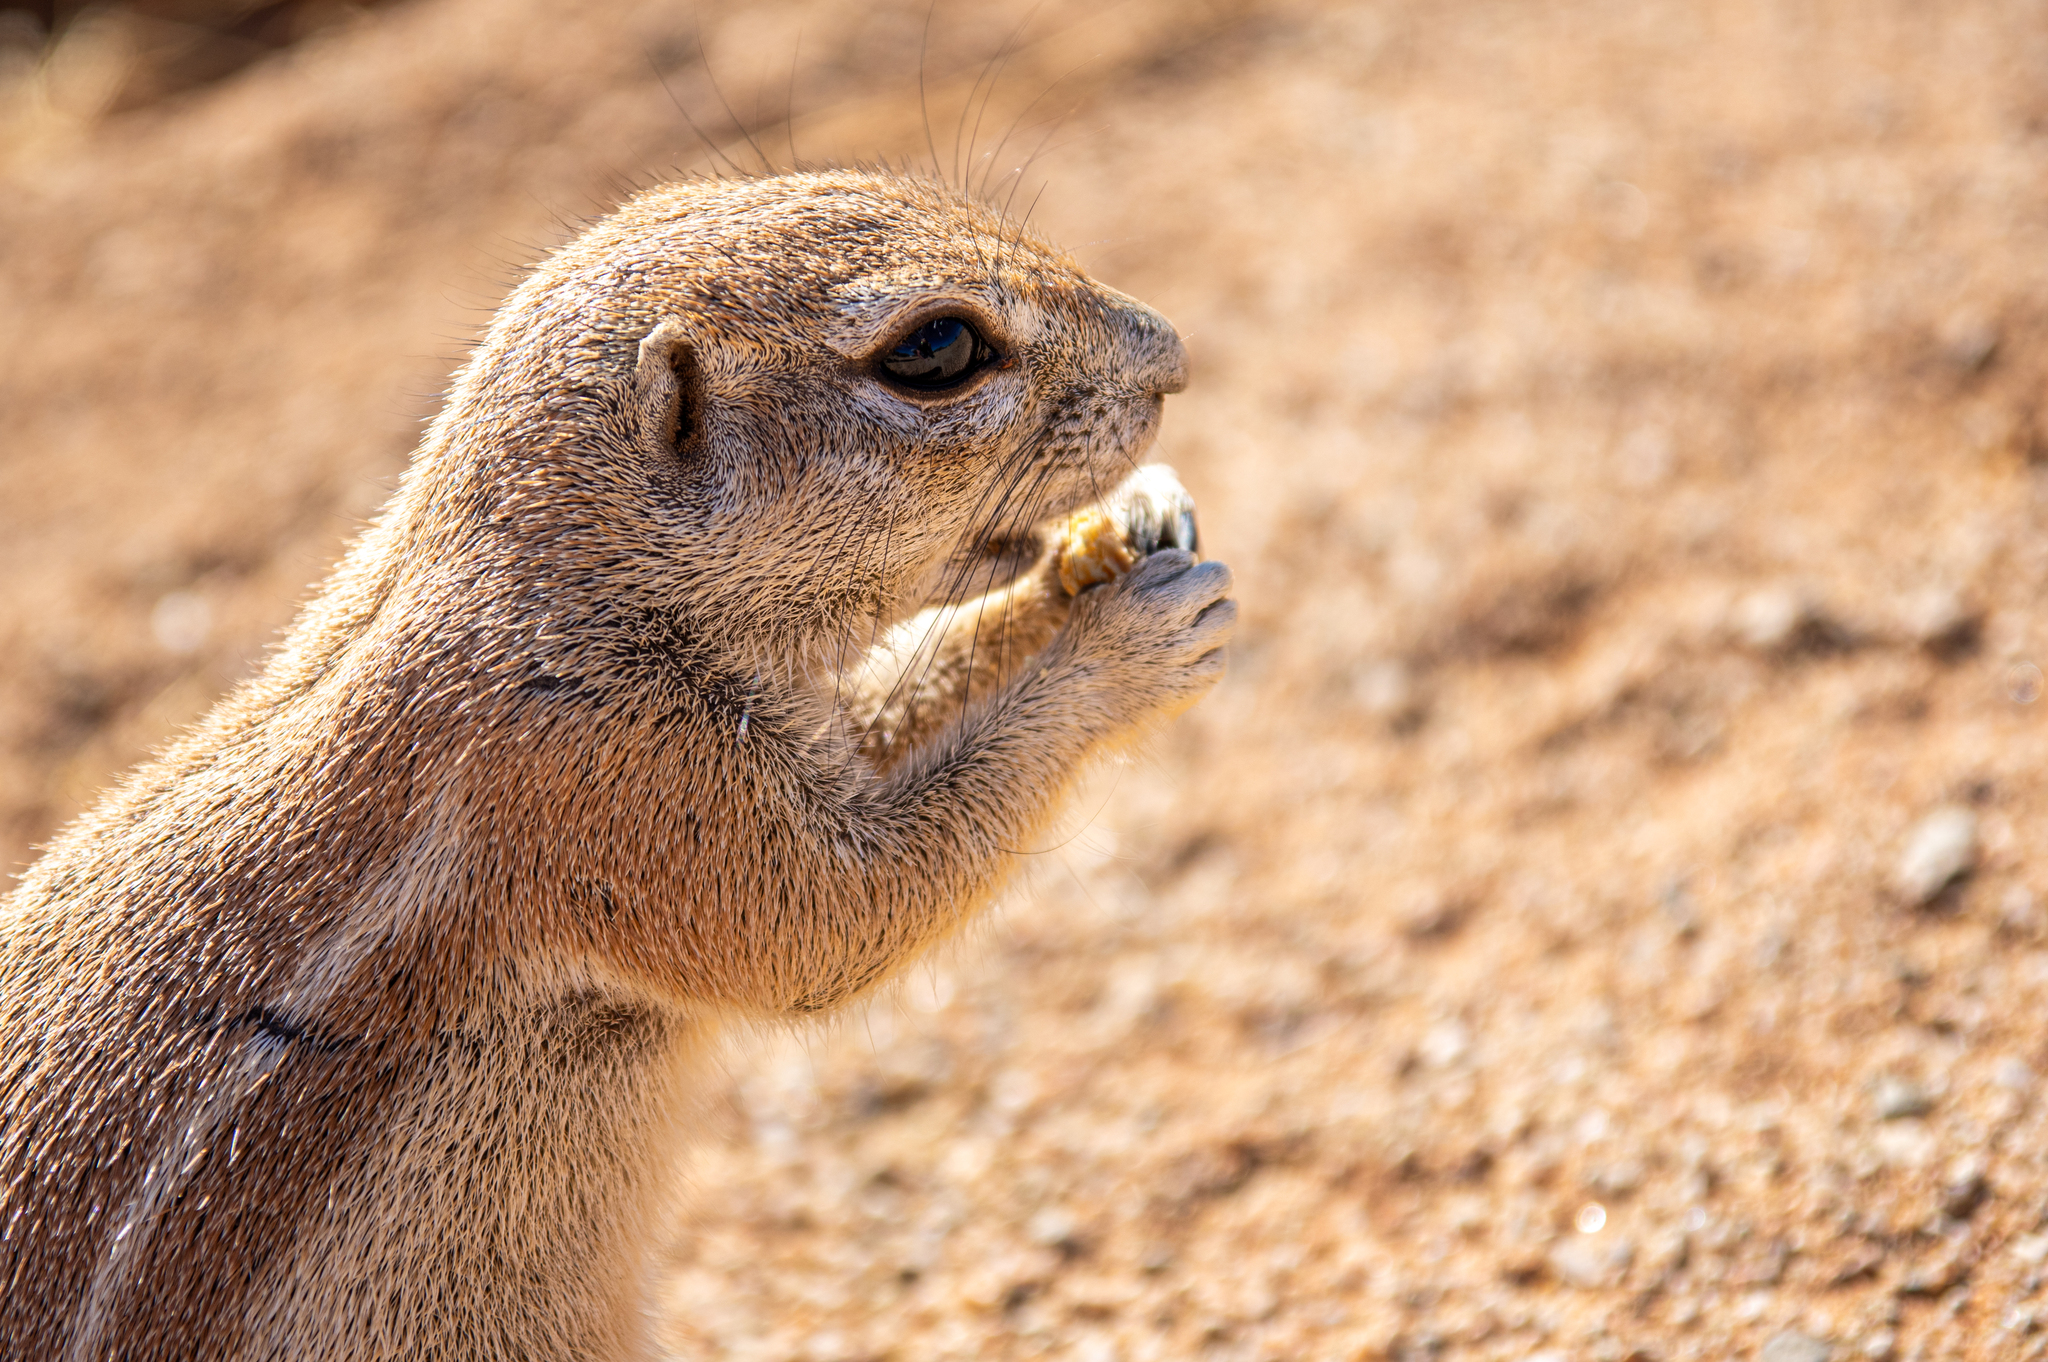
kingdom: Animalia
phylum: Chordata
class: Mammalia
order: Rodentia
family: Sciuridae
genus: Xerus
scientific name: Xerus inauris
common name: South african ground squirrel
